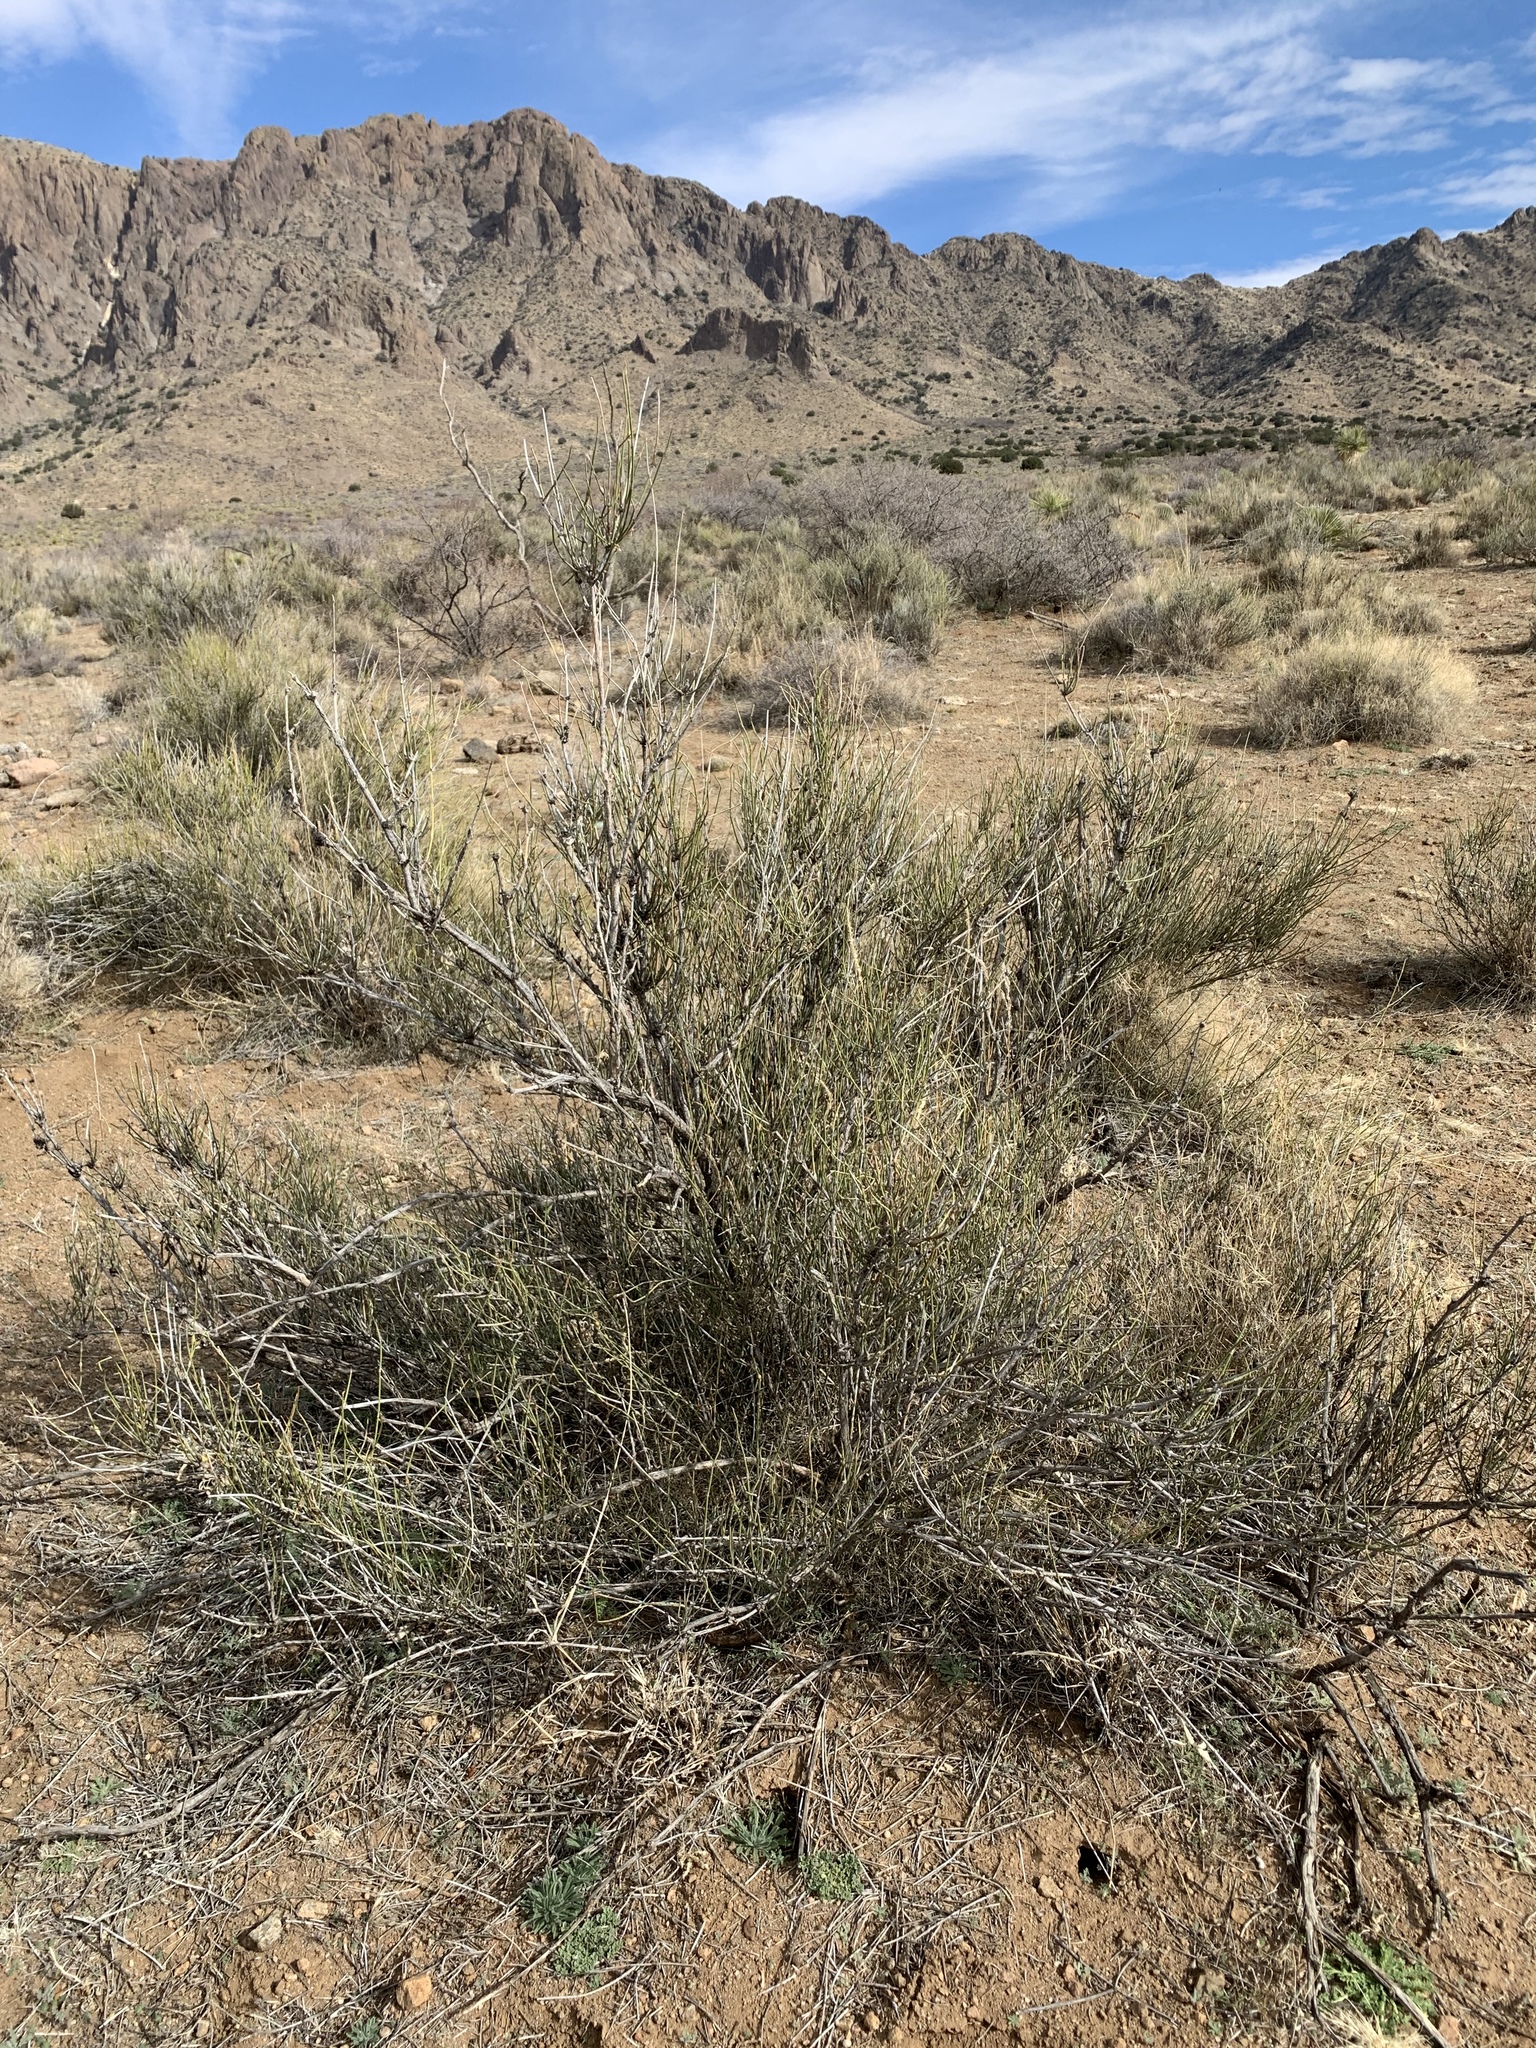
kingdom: Plantae
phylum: Tracheophyta
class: Gnetopsida
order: Ephedrales
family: Ephedraceae
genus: Ephedra
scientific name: Ephedra trifurca
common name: Mexican-tea
